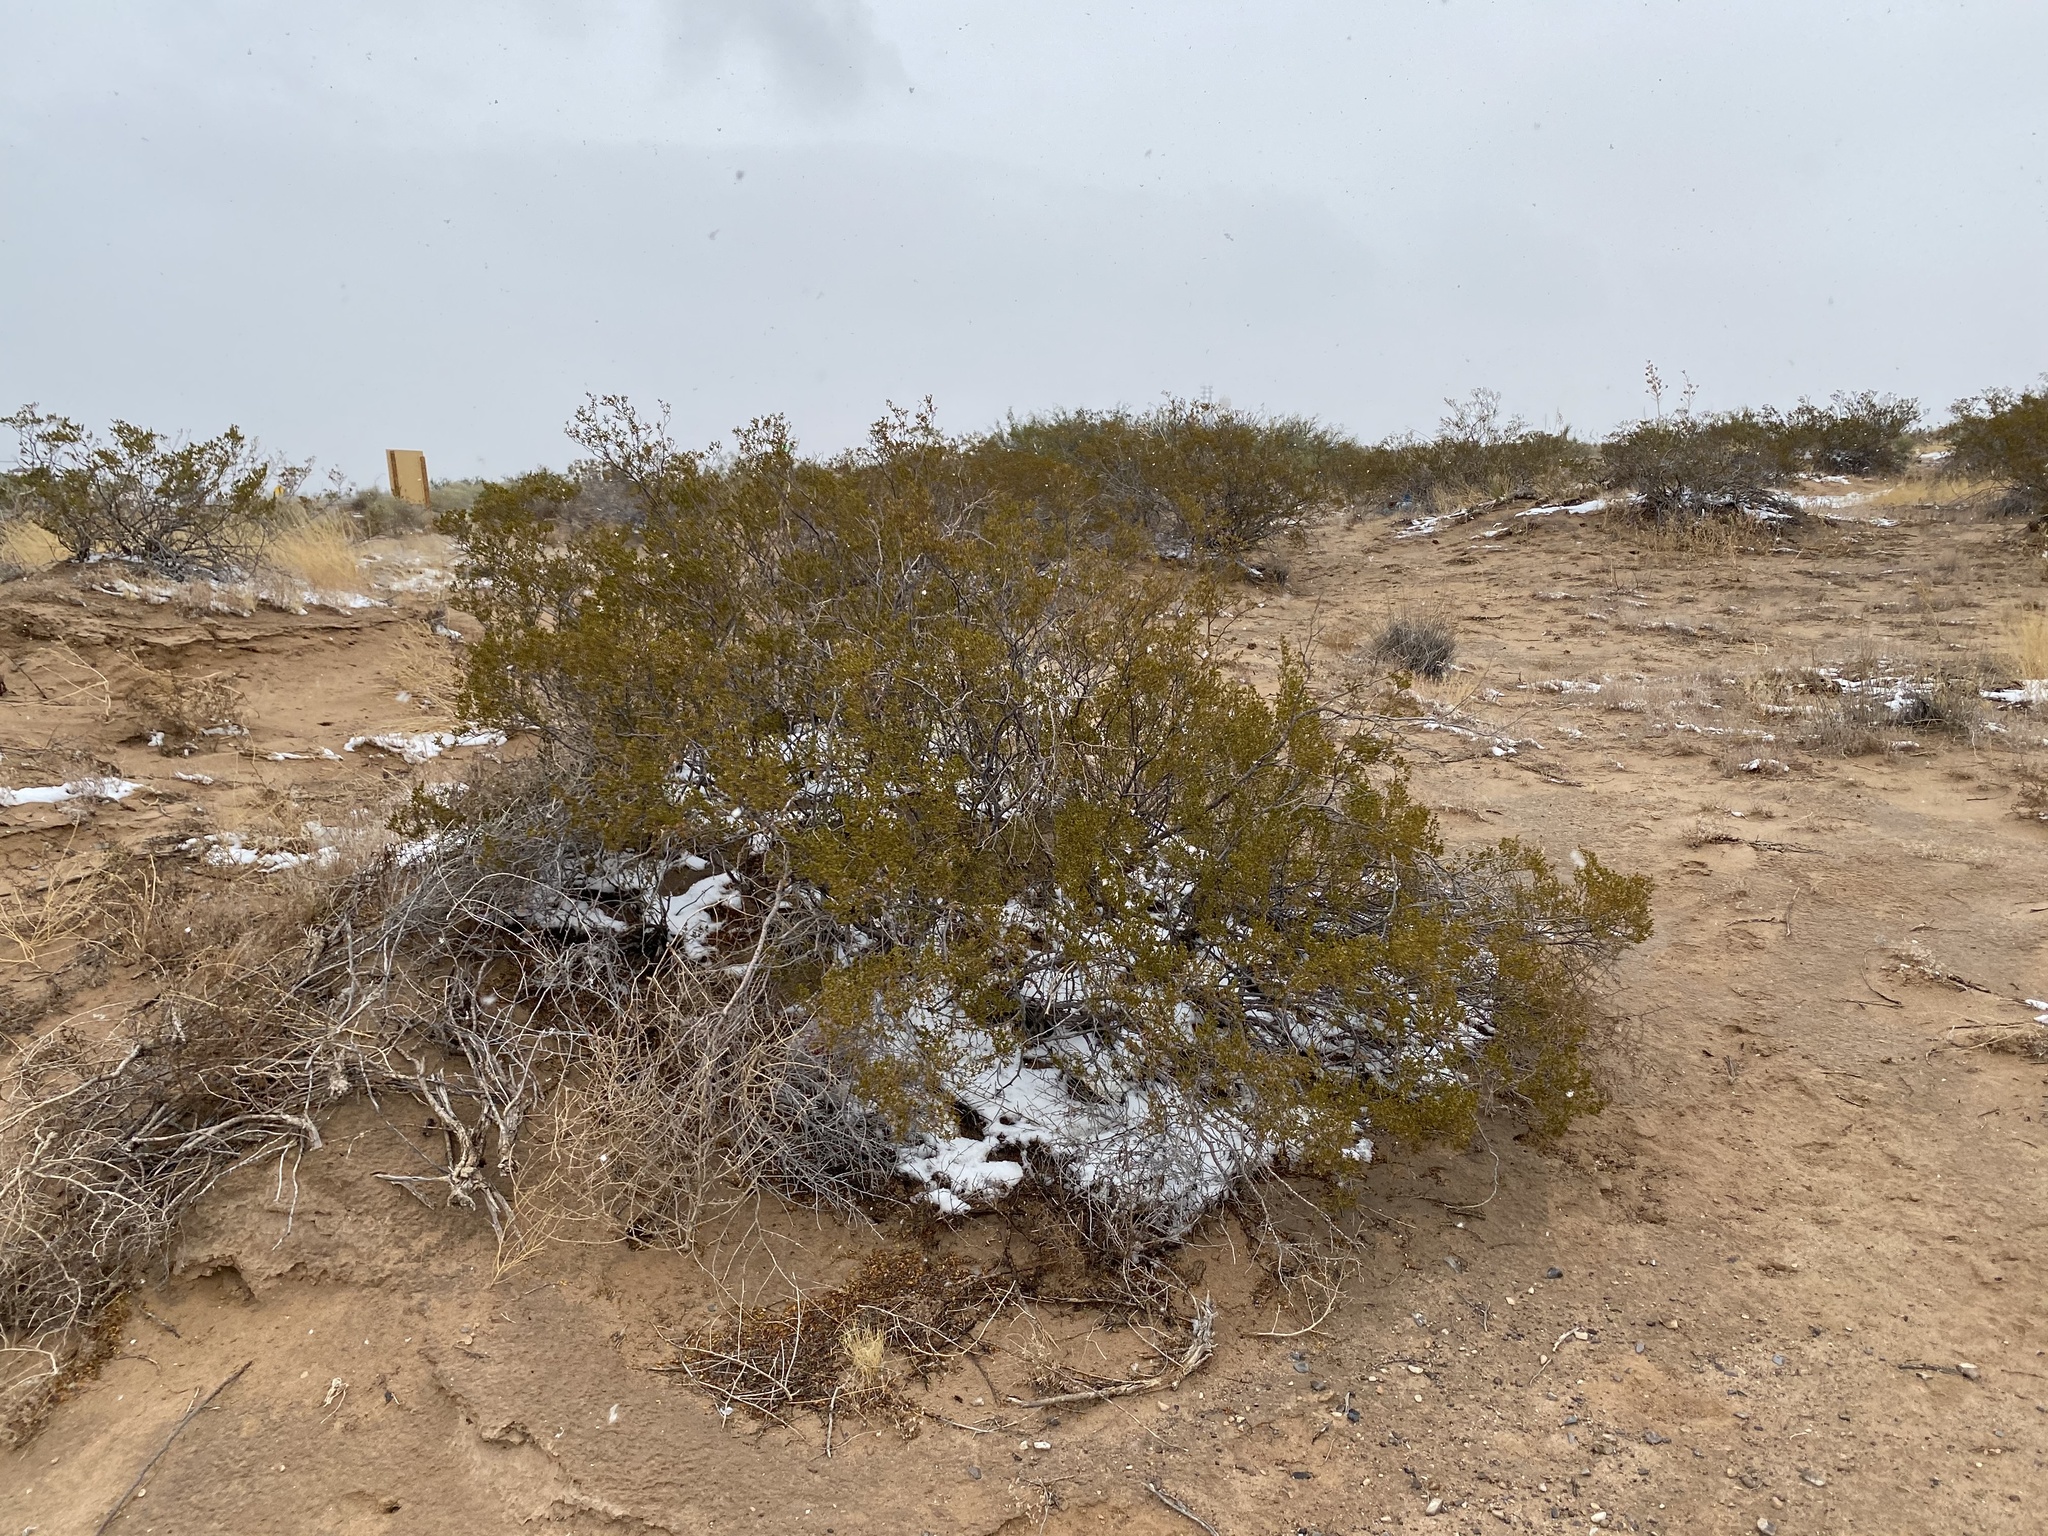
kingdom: Plantae
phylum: Tracheophyta
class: Magnoliopsida
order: Zygophyllales
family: Zygophyllaceae
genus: Larrea
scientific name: Larrea tridentata
